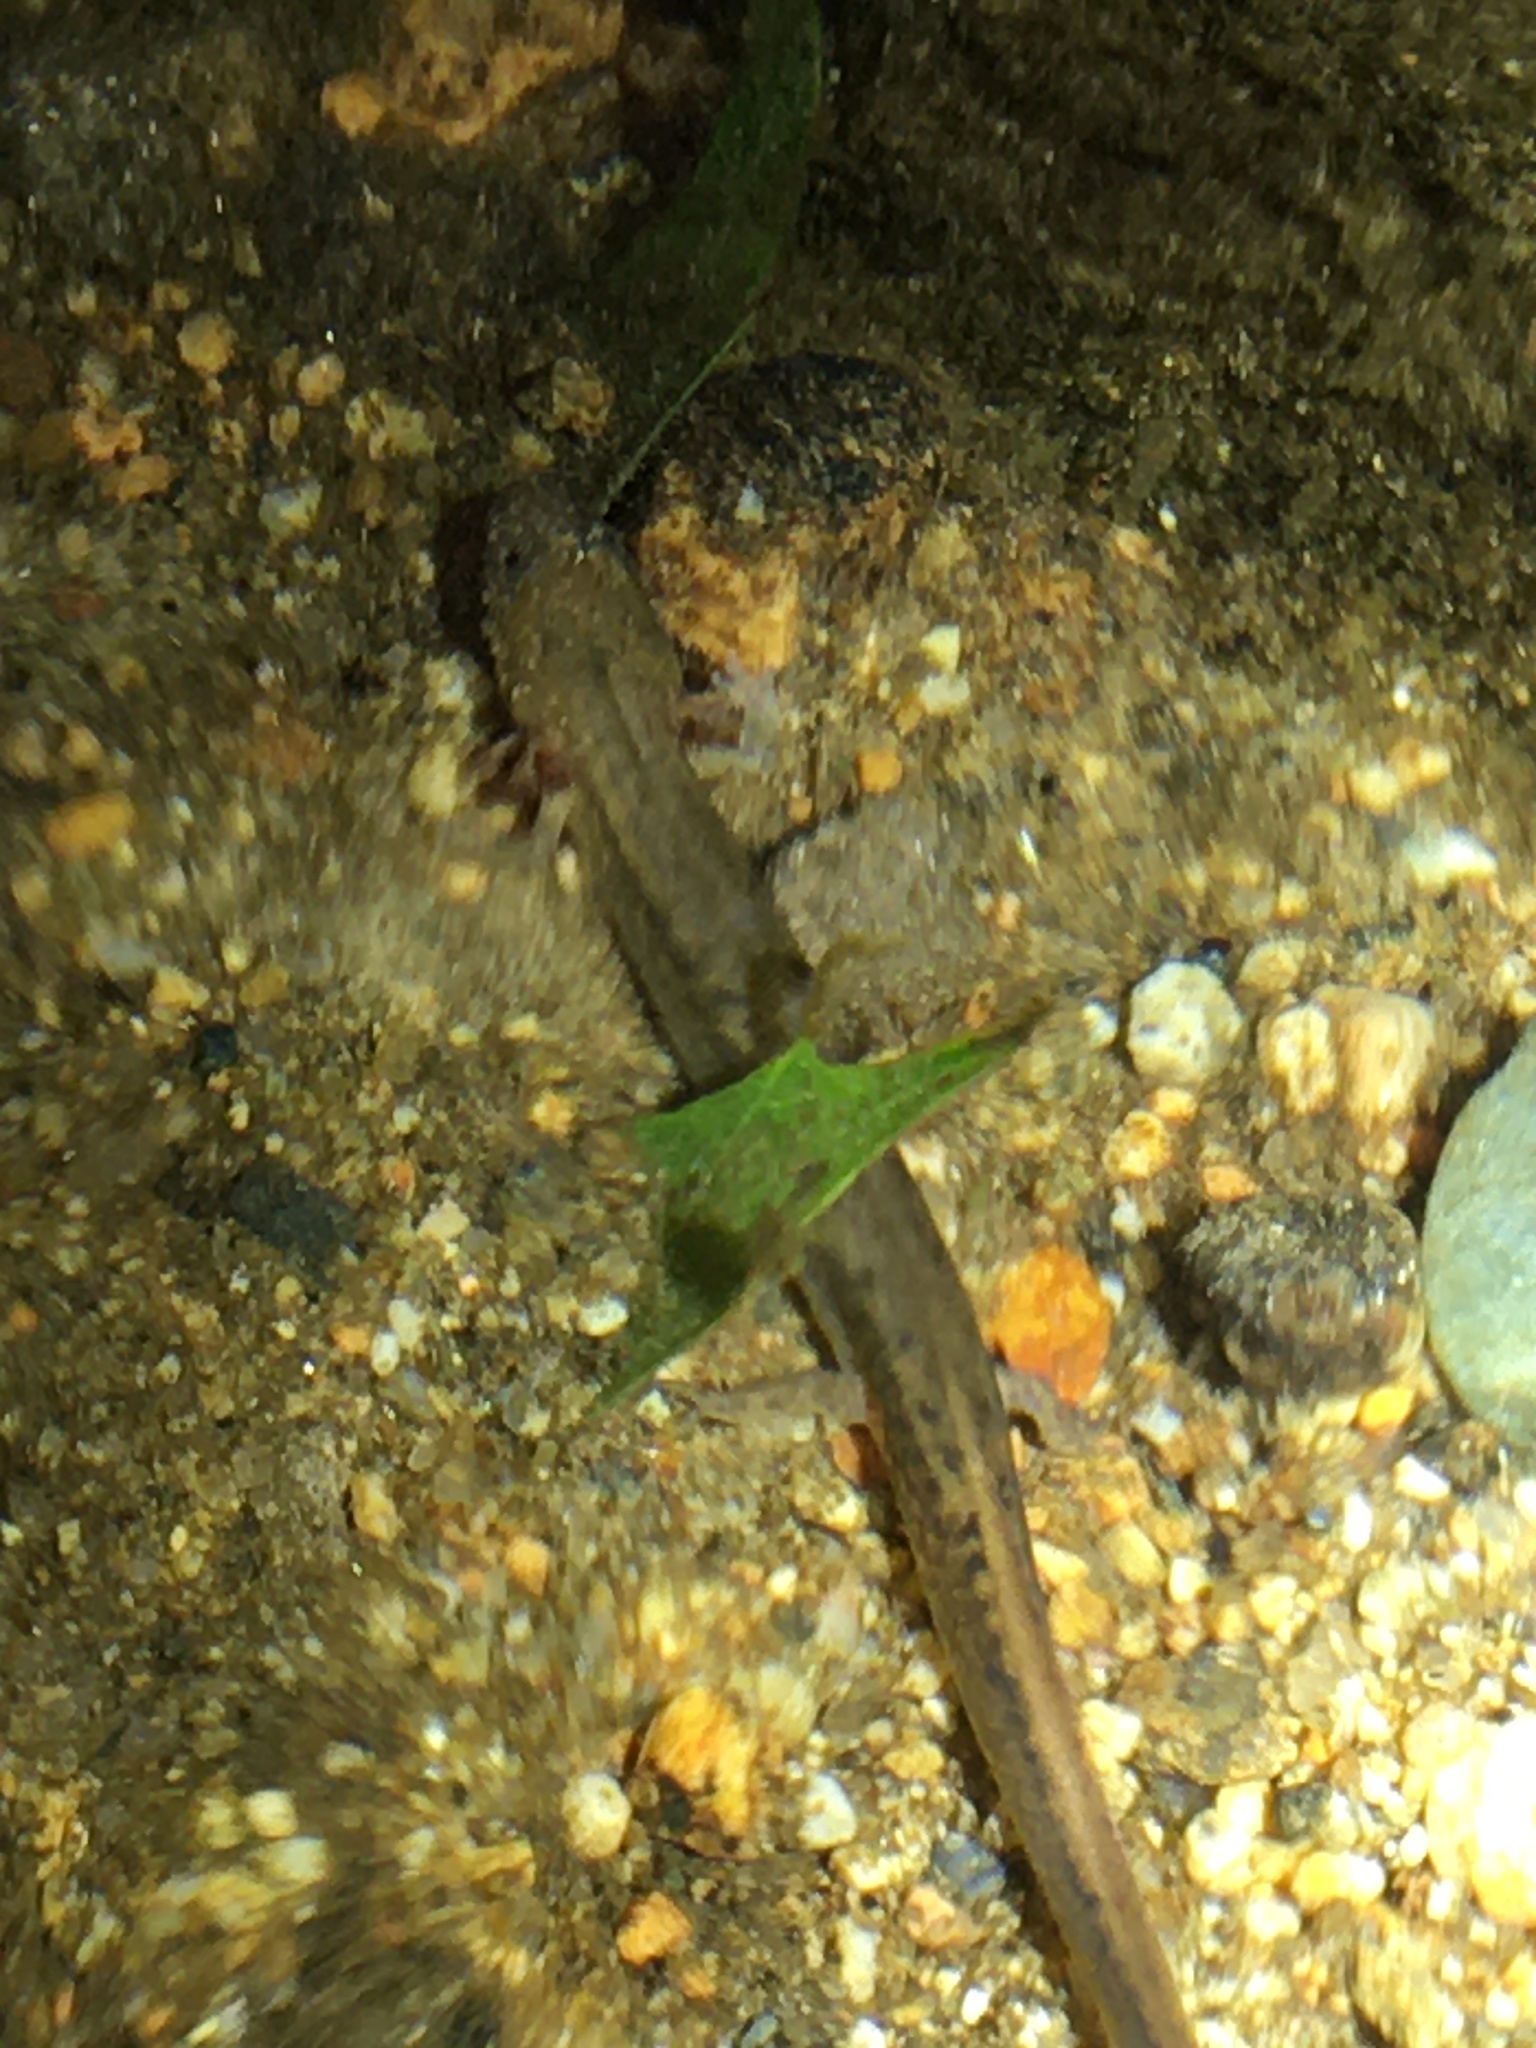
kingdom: Animalia
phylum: Chordata
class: Amphibia
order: Caudata
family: Plethodontidae
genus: Eurycea
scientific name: Eurycea bislineata
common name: Northern two-lined salamander
